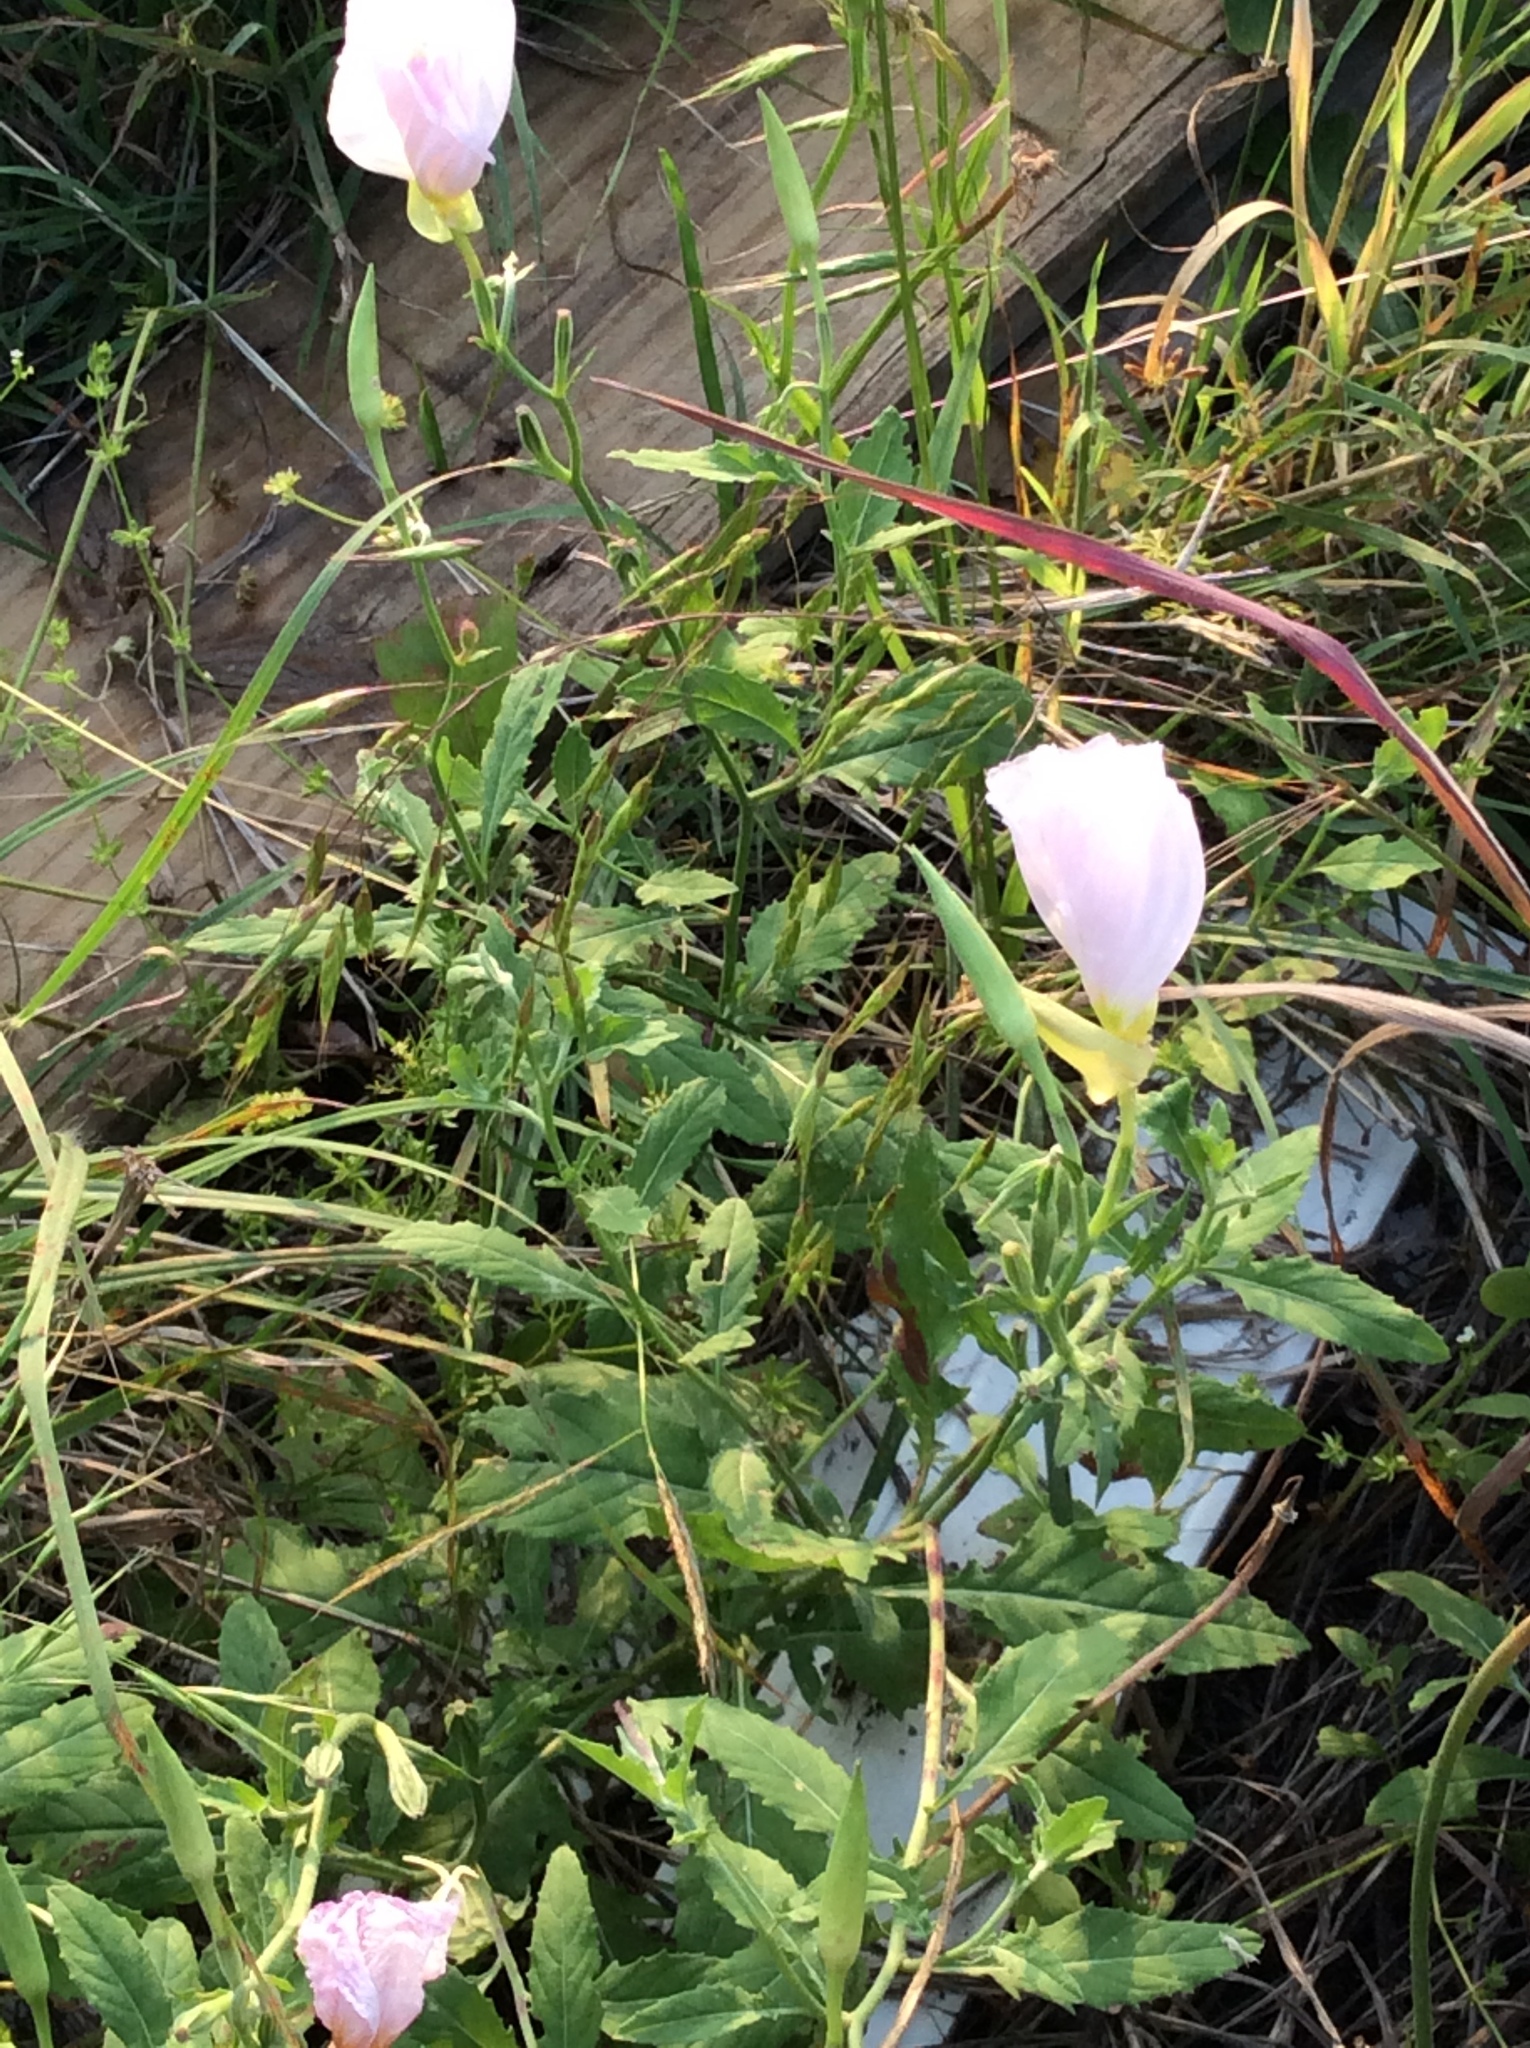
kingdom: Plantae
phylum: Tracheophyta
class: Magnoliopsida
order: Myrtales
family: Onagraceae
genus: Oenothera
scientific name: Oenothera speciosa
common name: White evening-primrose
